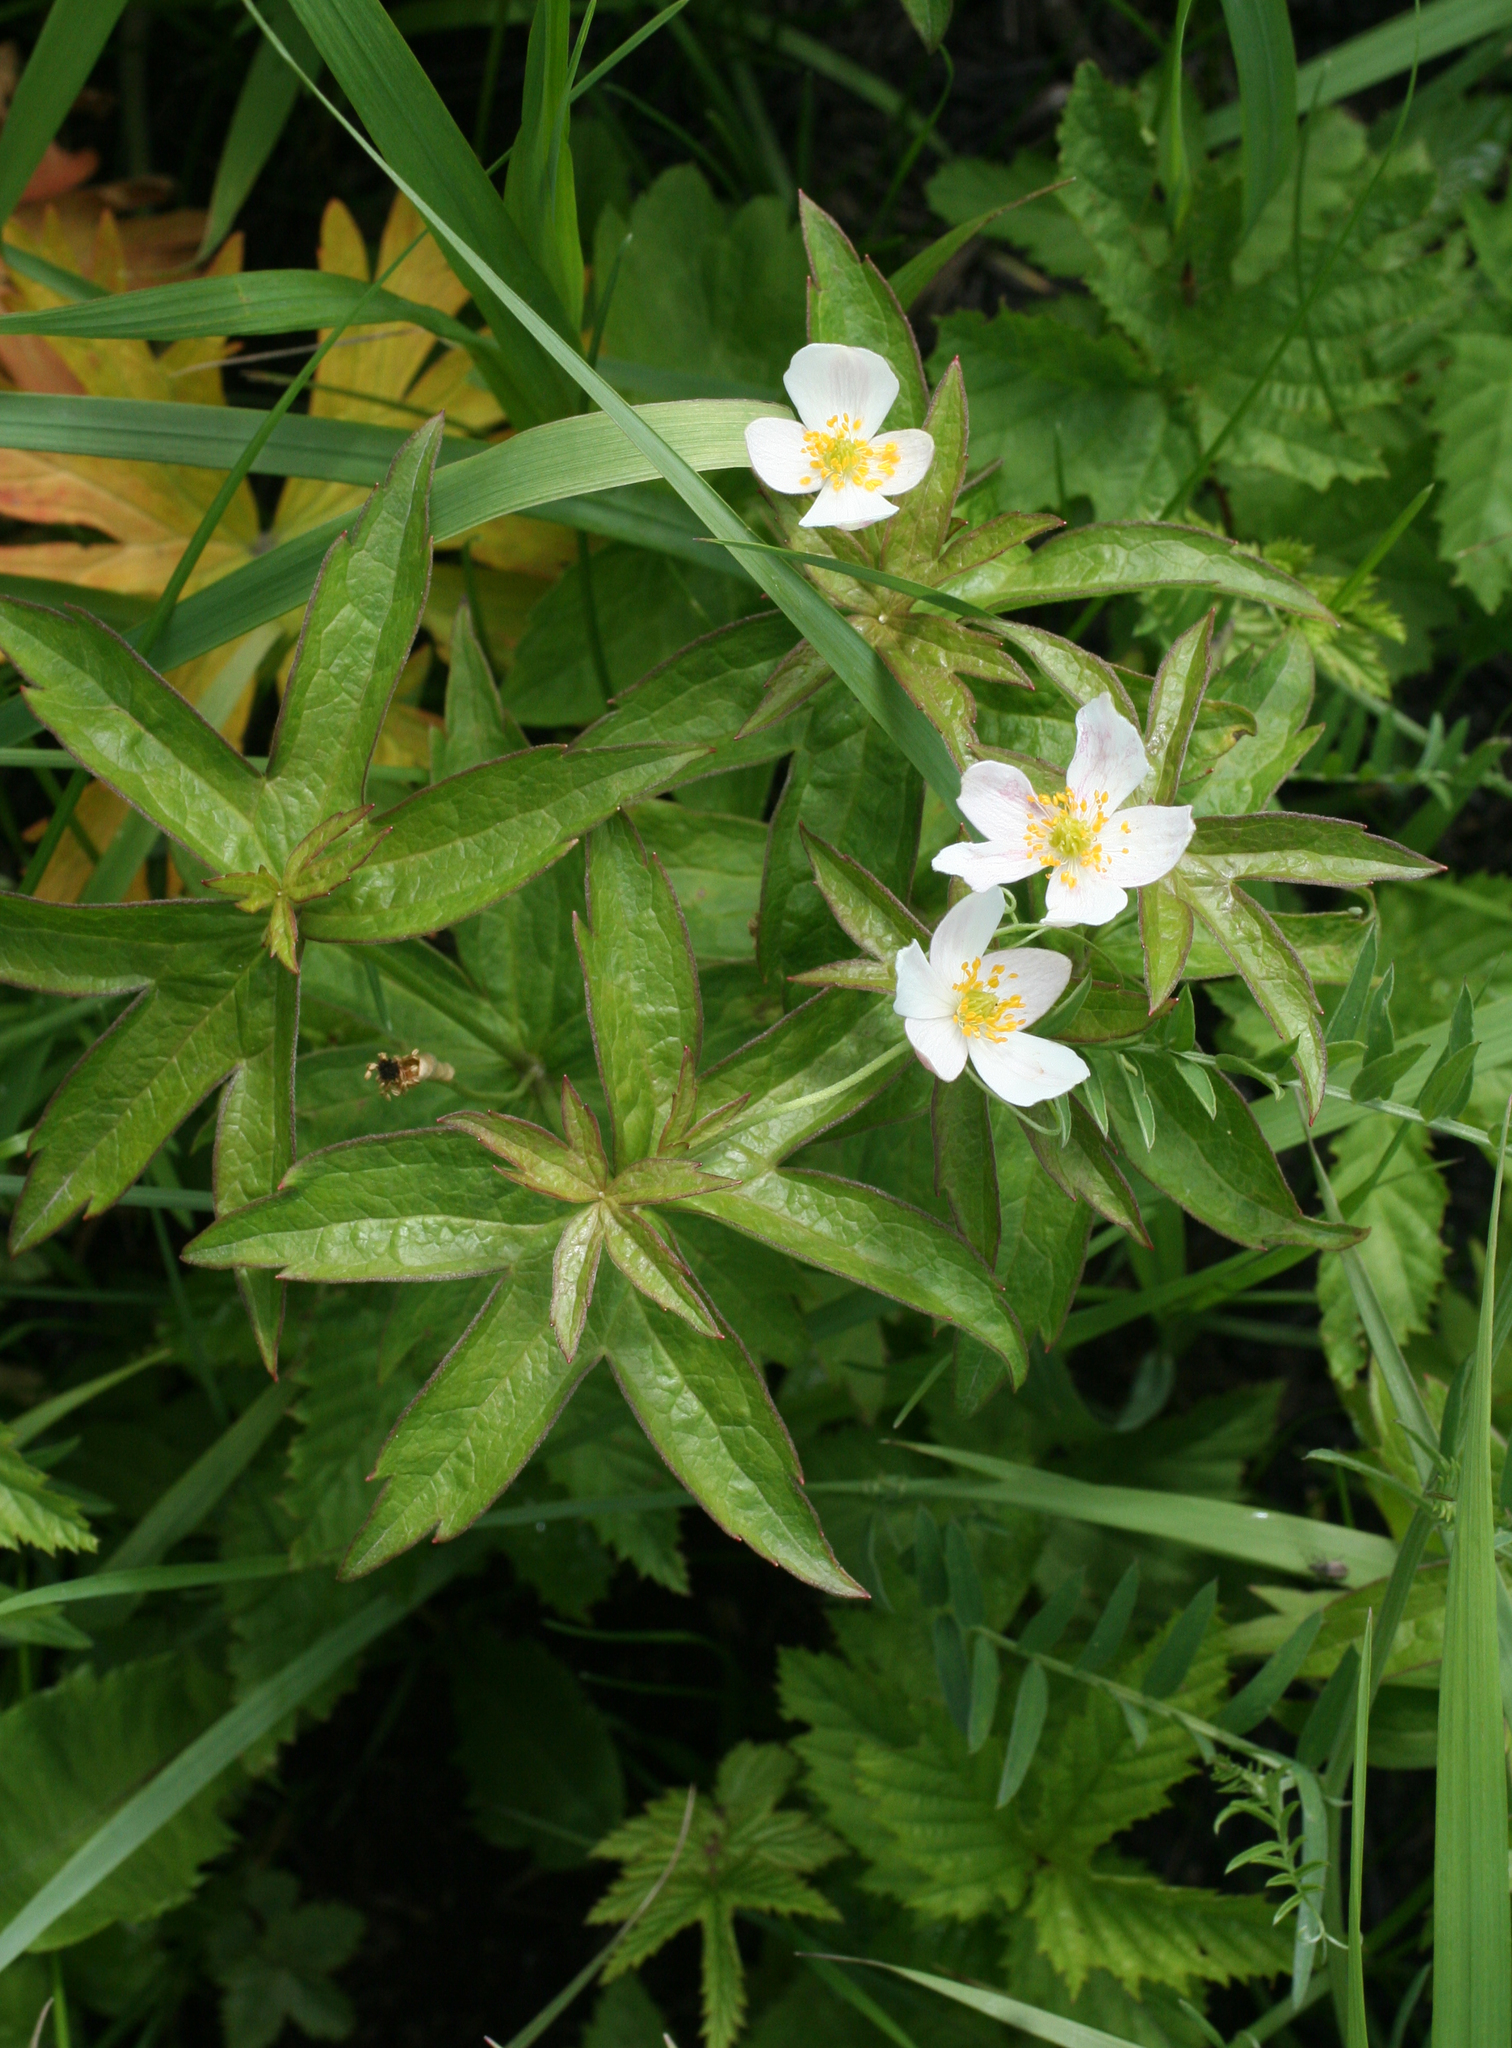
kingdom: Plantae
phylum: Tracheophyta
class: Magnoliopsida
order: Ranunculales
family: Ranunculaceae
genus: Anemonastrum
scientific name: Anemonastrum dichotomum
